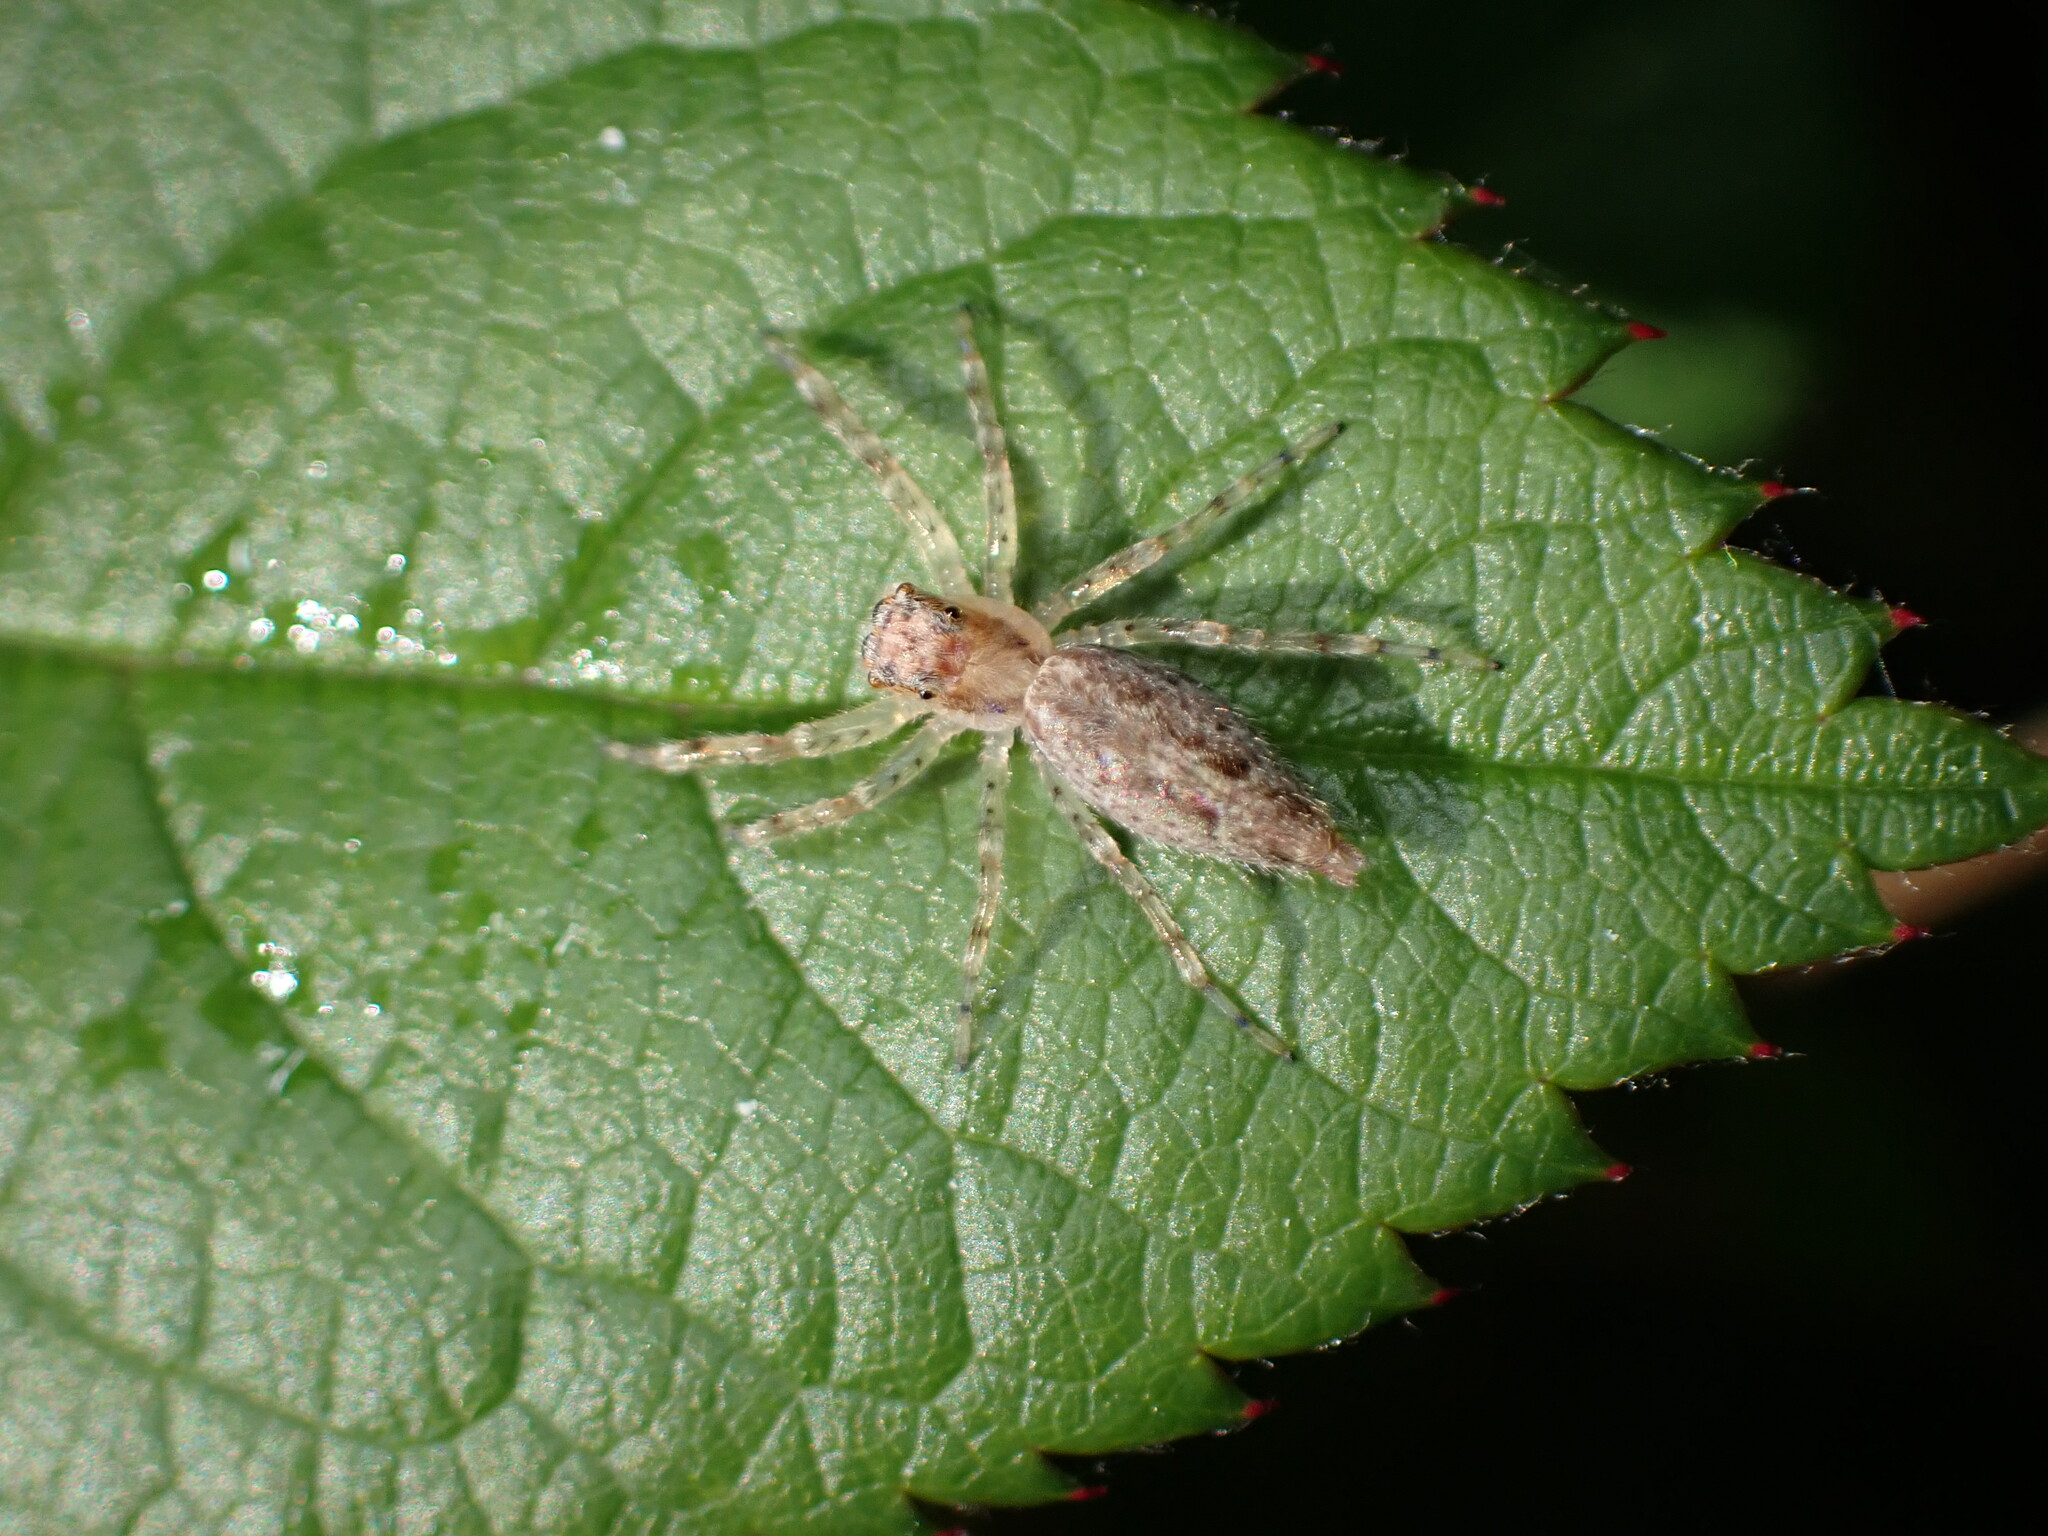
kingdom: Animalia
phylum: Arthropoda
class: Arachnida
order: Araneae
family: Salticidae
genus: Helpis
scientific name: Helpis minitabunda
